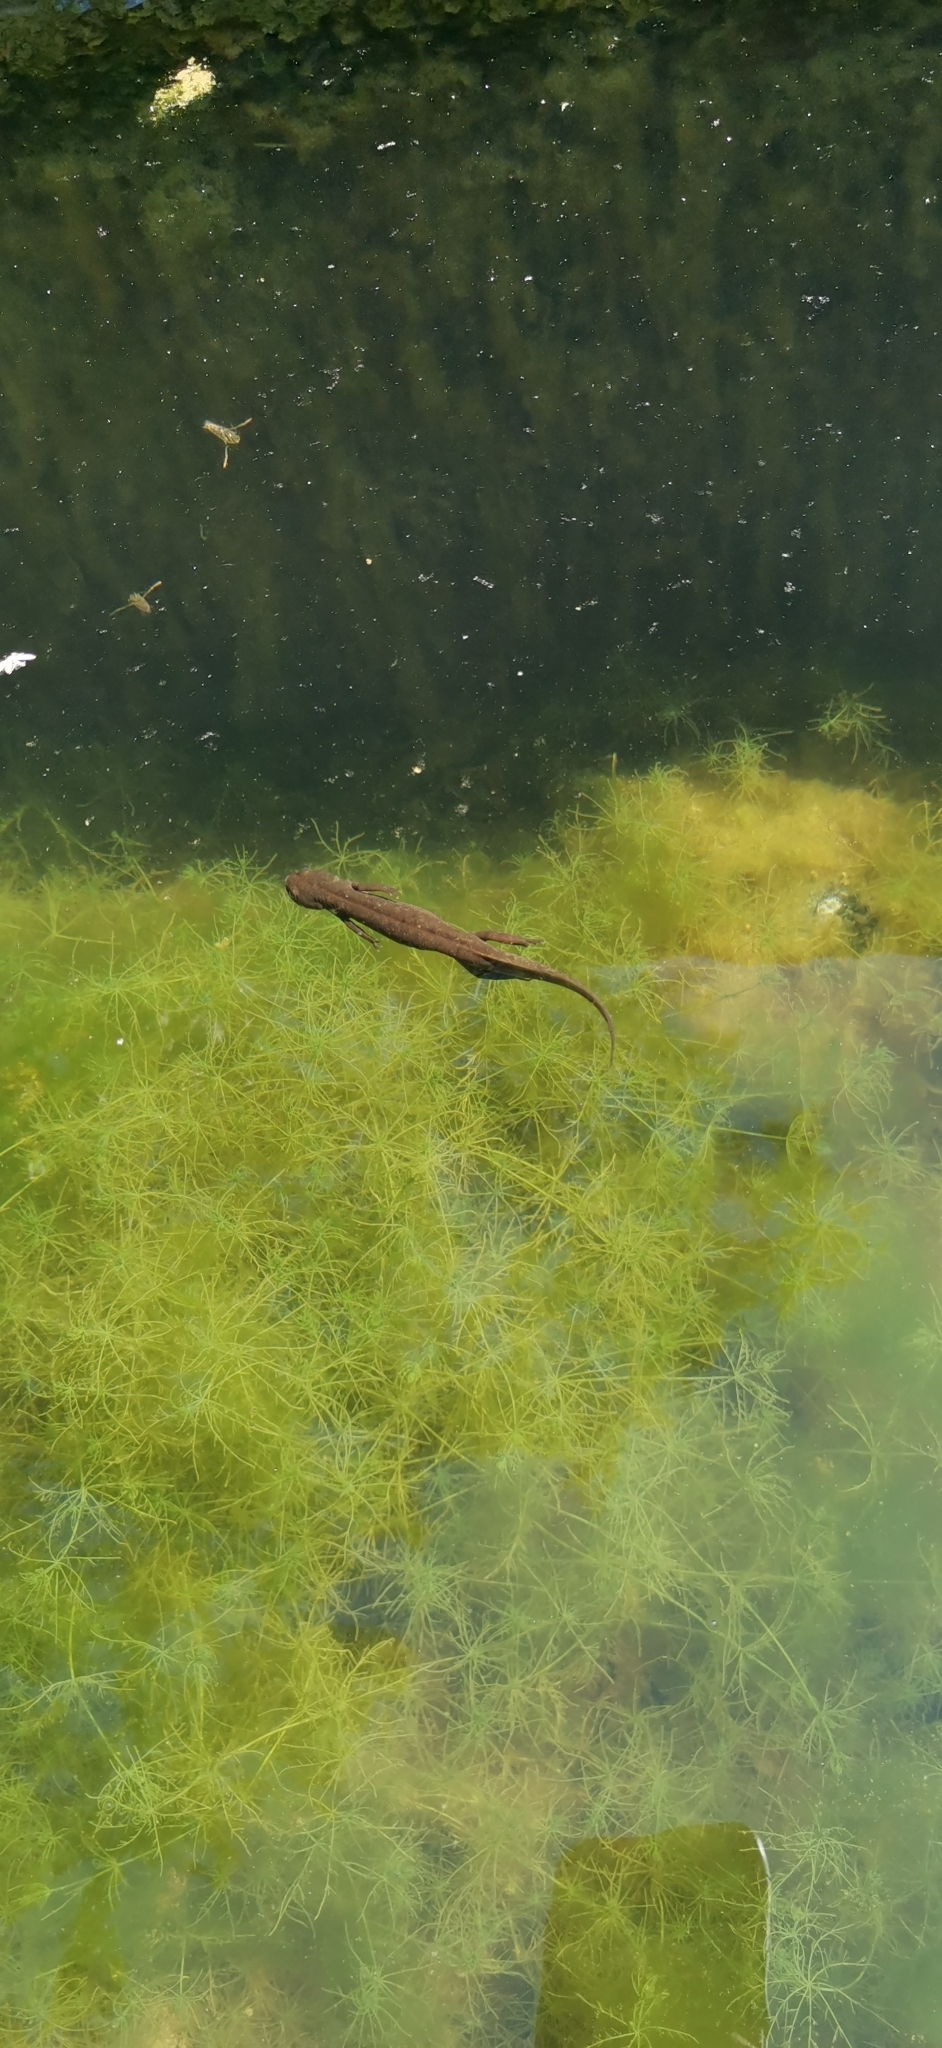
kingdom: Animalia
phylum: Chordata
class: Amphibia
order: Caudata
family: Salamandridae
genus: Triturus
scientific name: Triturus carnifex
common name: Italian crested newt
